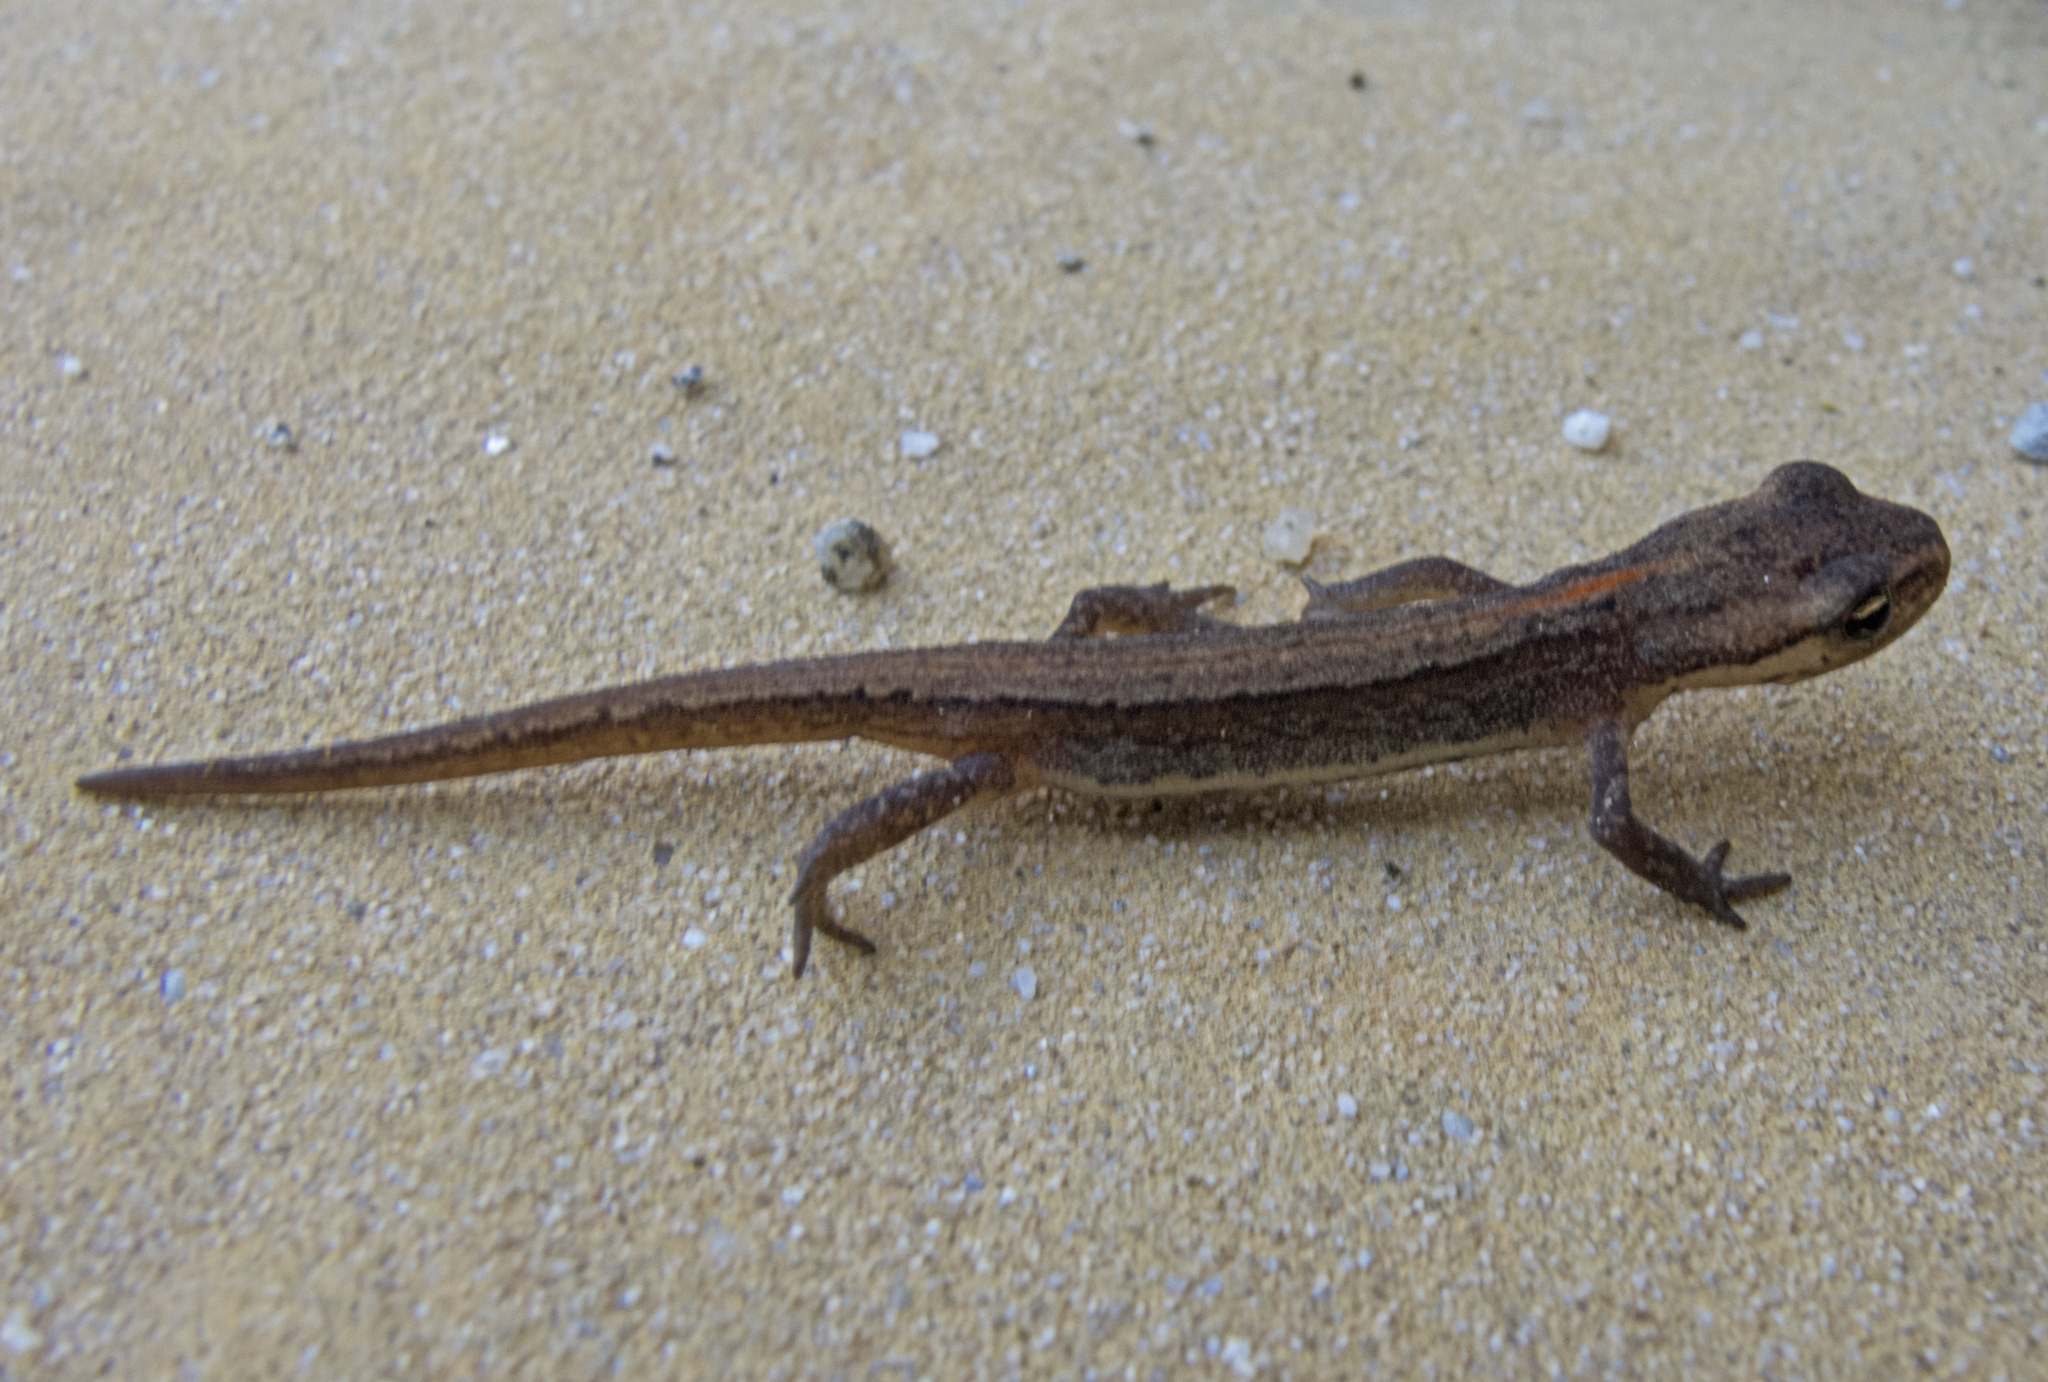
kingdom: Animalia
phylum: Chordata
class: Amphibia
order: Caudata
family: Salamandridae
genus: Lissotriton
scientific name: Lissotriton schmidtleri
